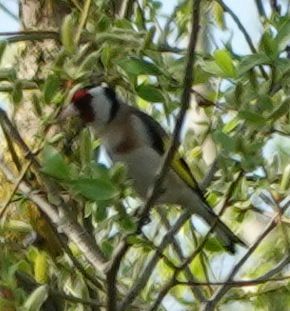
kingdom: Animalia
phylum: Chordata
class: Aves
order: Passeriformes
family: Fringillidae
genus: Carduelis
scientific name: Carduelis carduelis
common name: European goldfinch
